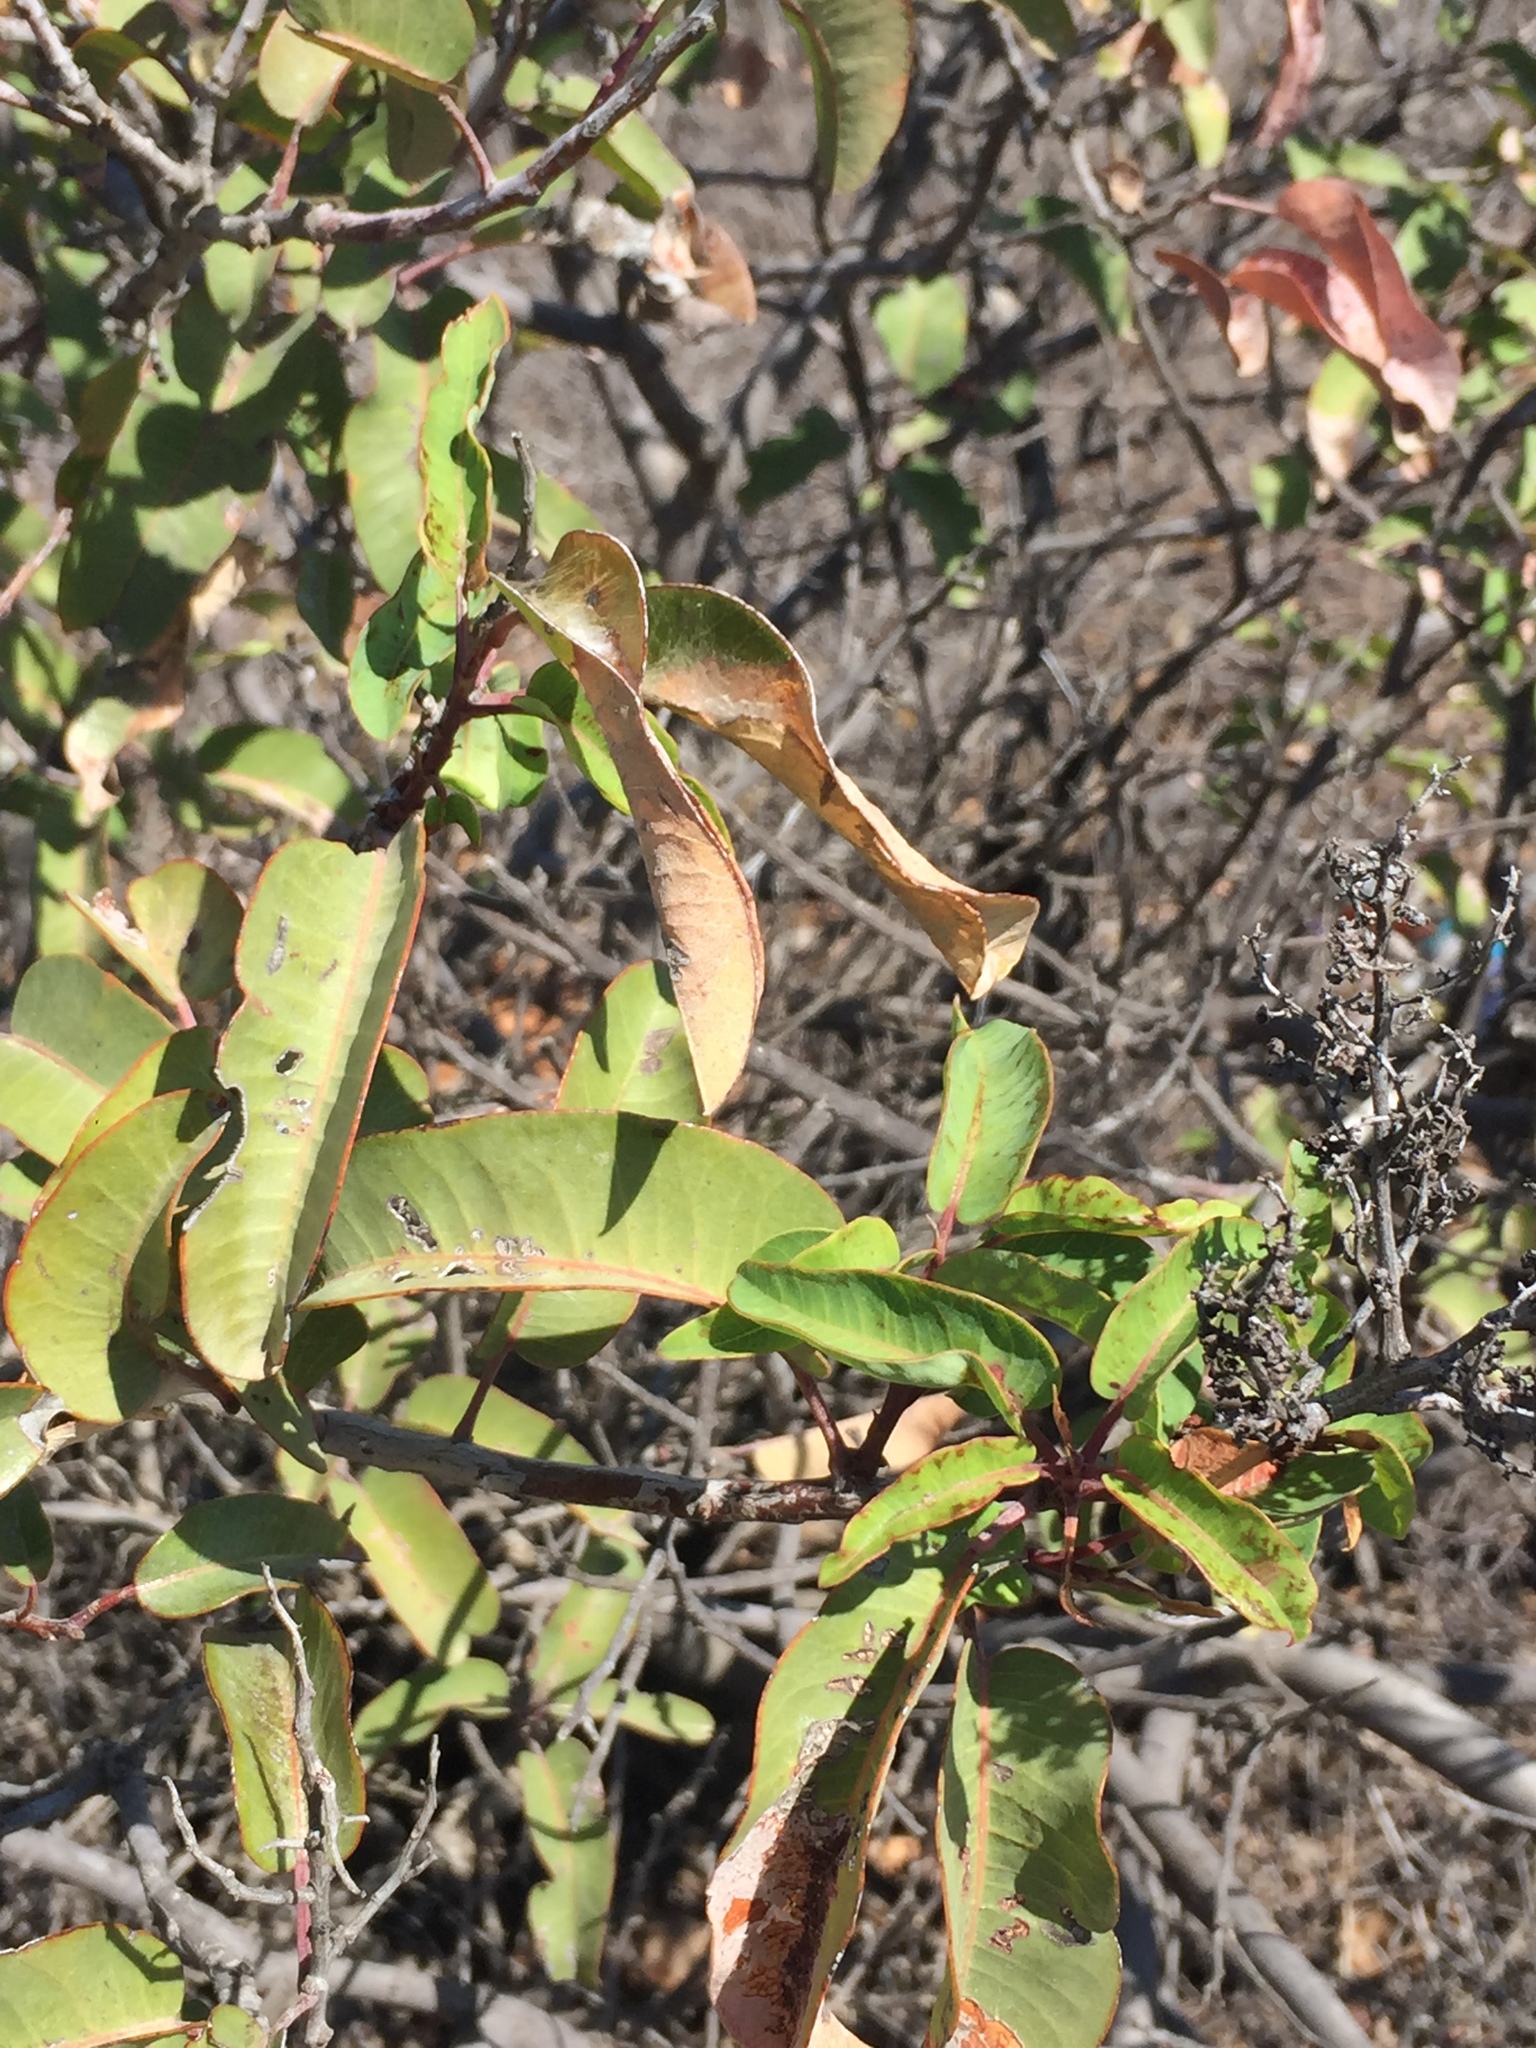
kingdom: Plantae
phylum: Tracheophyta
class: Magnoliopsida
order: Sapindales
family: Anacardiaceae
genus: Malosma
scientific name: Malosma laurina
